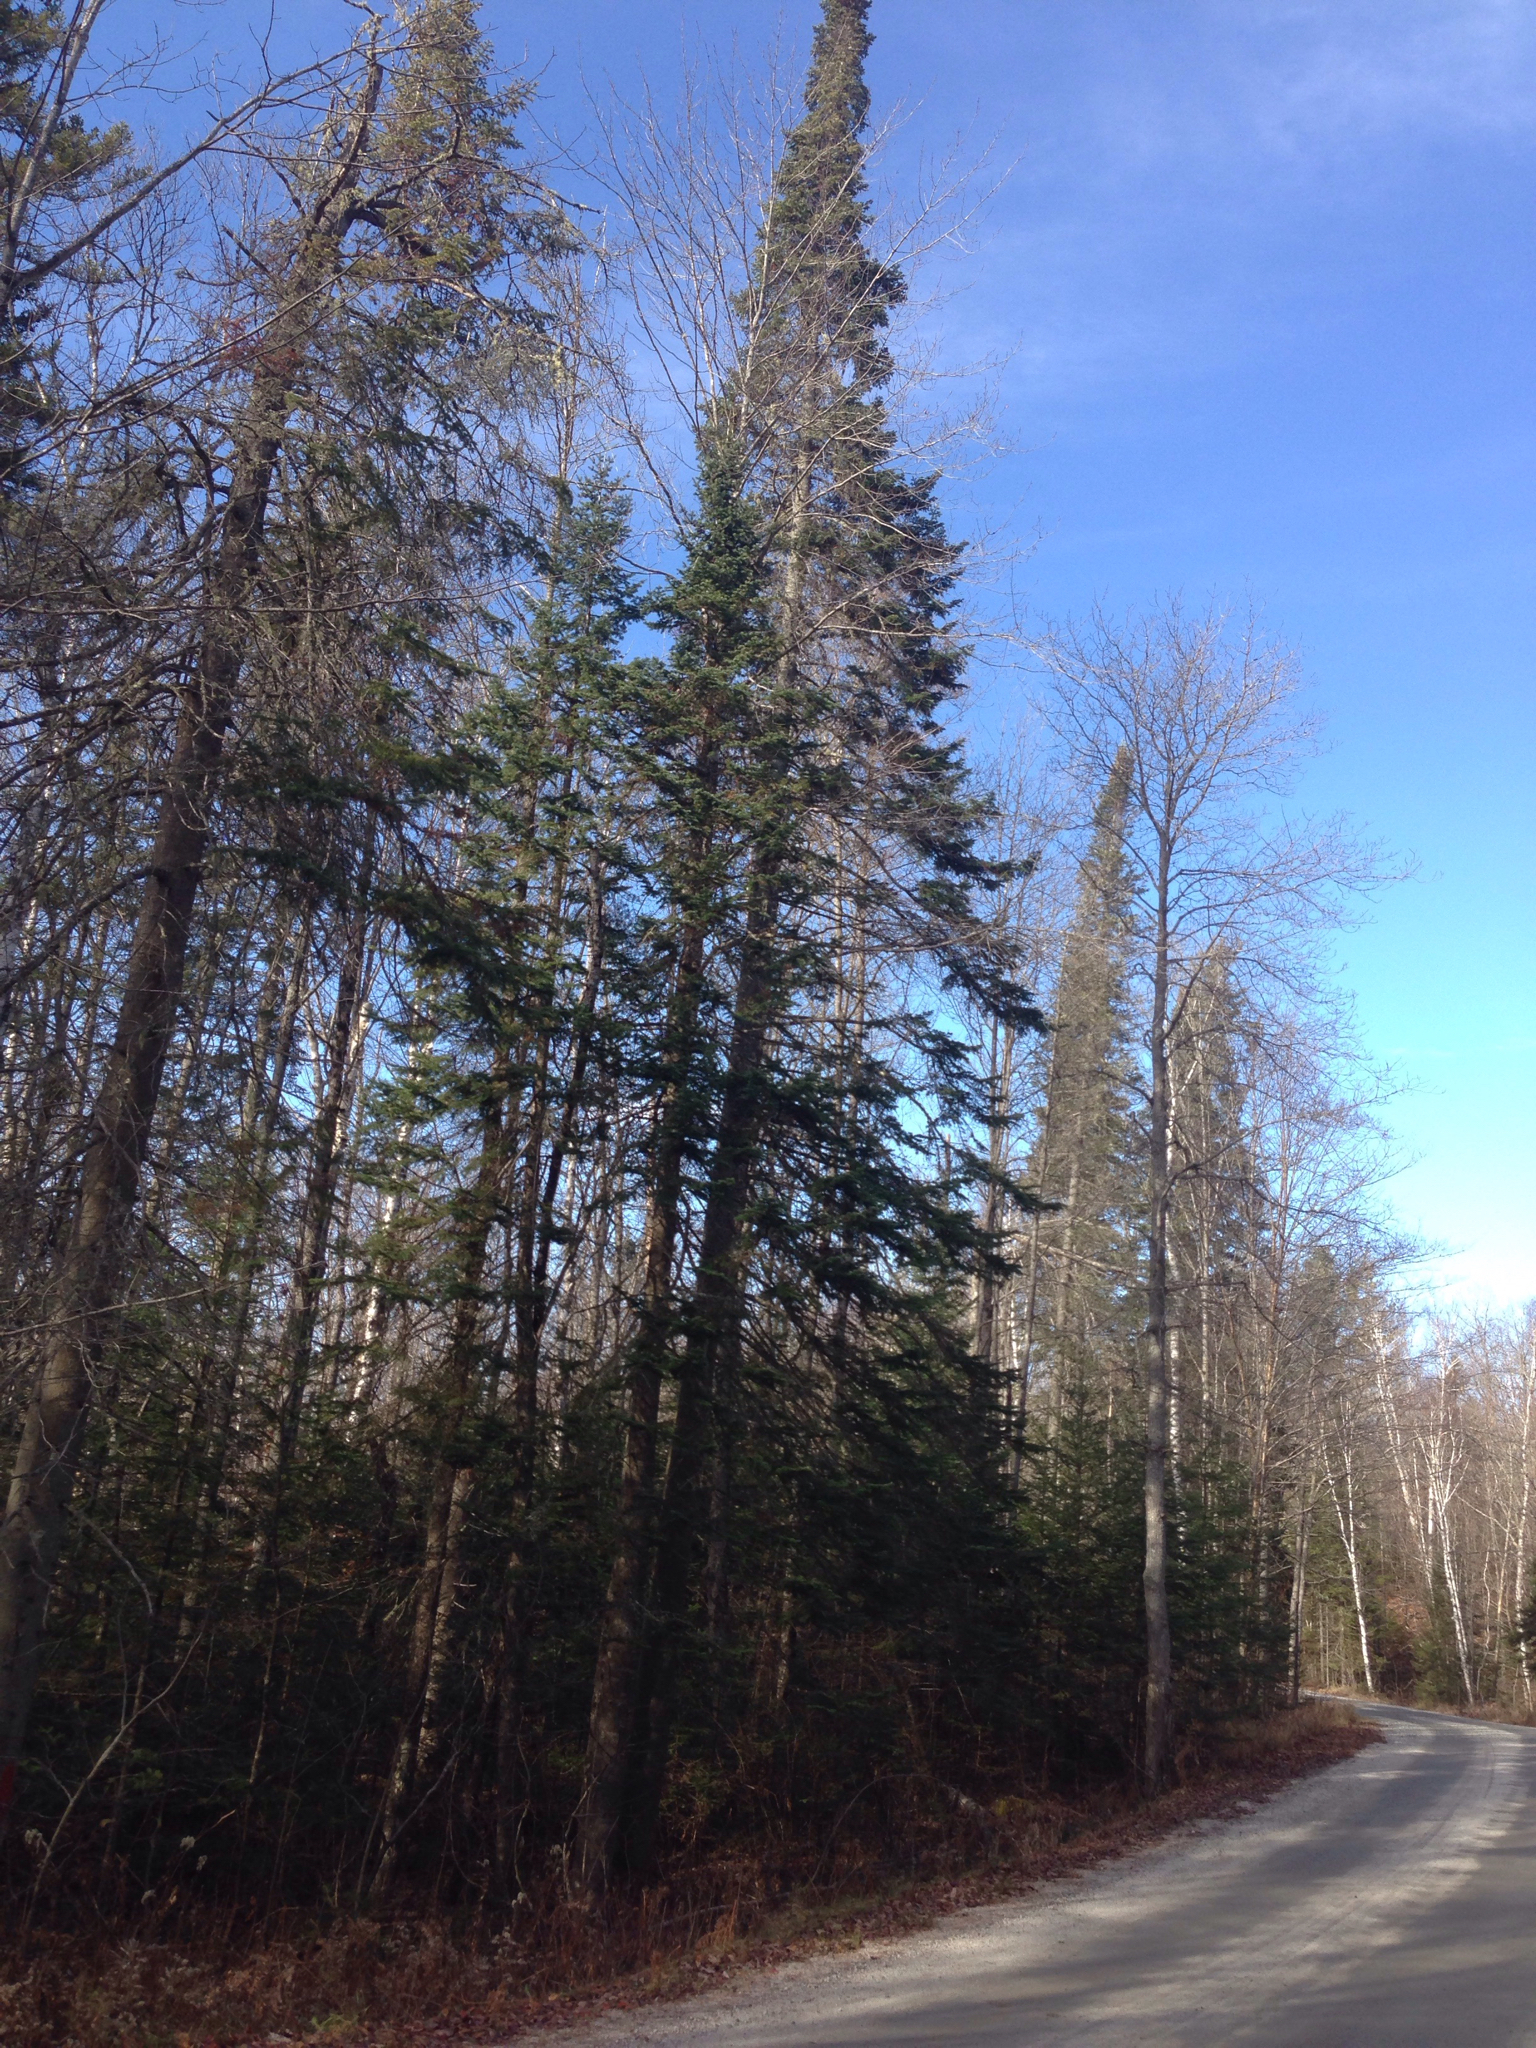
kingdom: Plantae
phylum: Tracheophyta
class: Pinopsida
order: Pinales
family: Pinaceae
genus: Abies
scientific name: Abies balsamea
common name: Balsam fir
